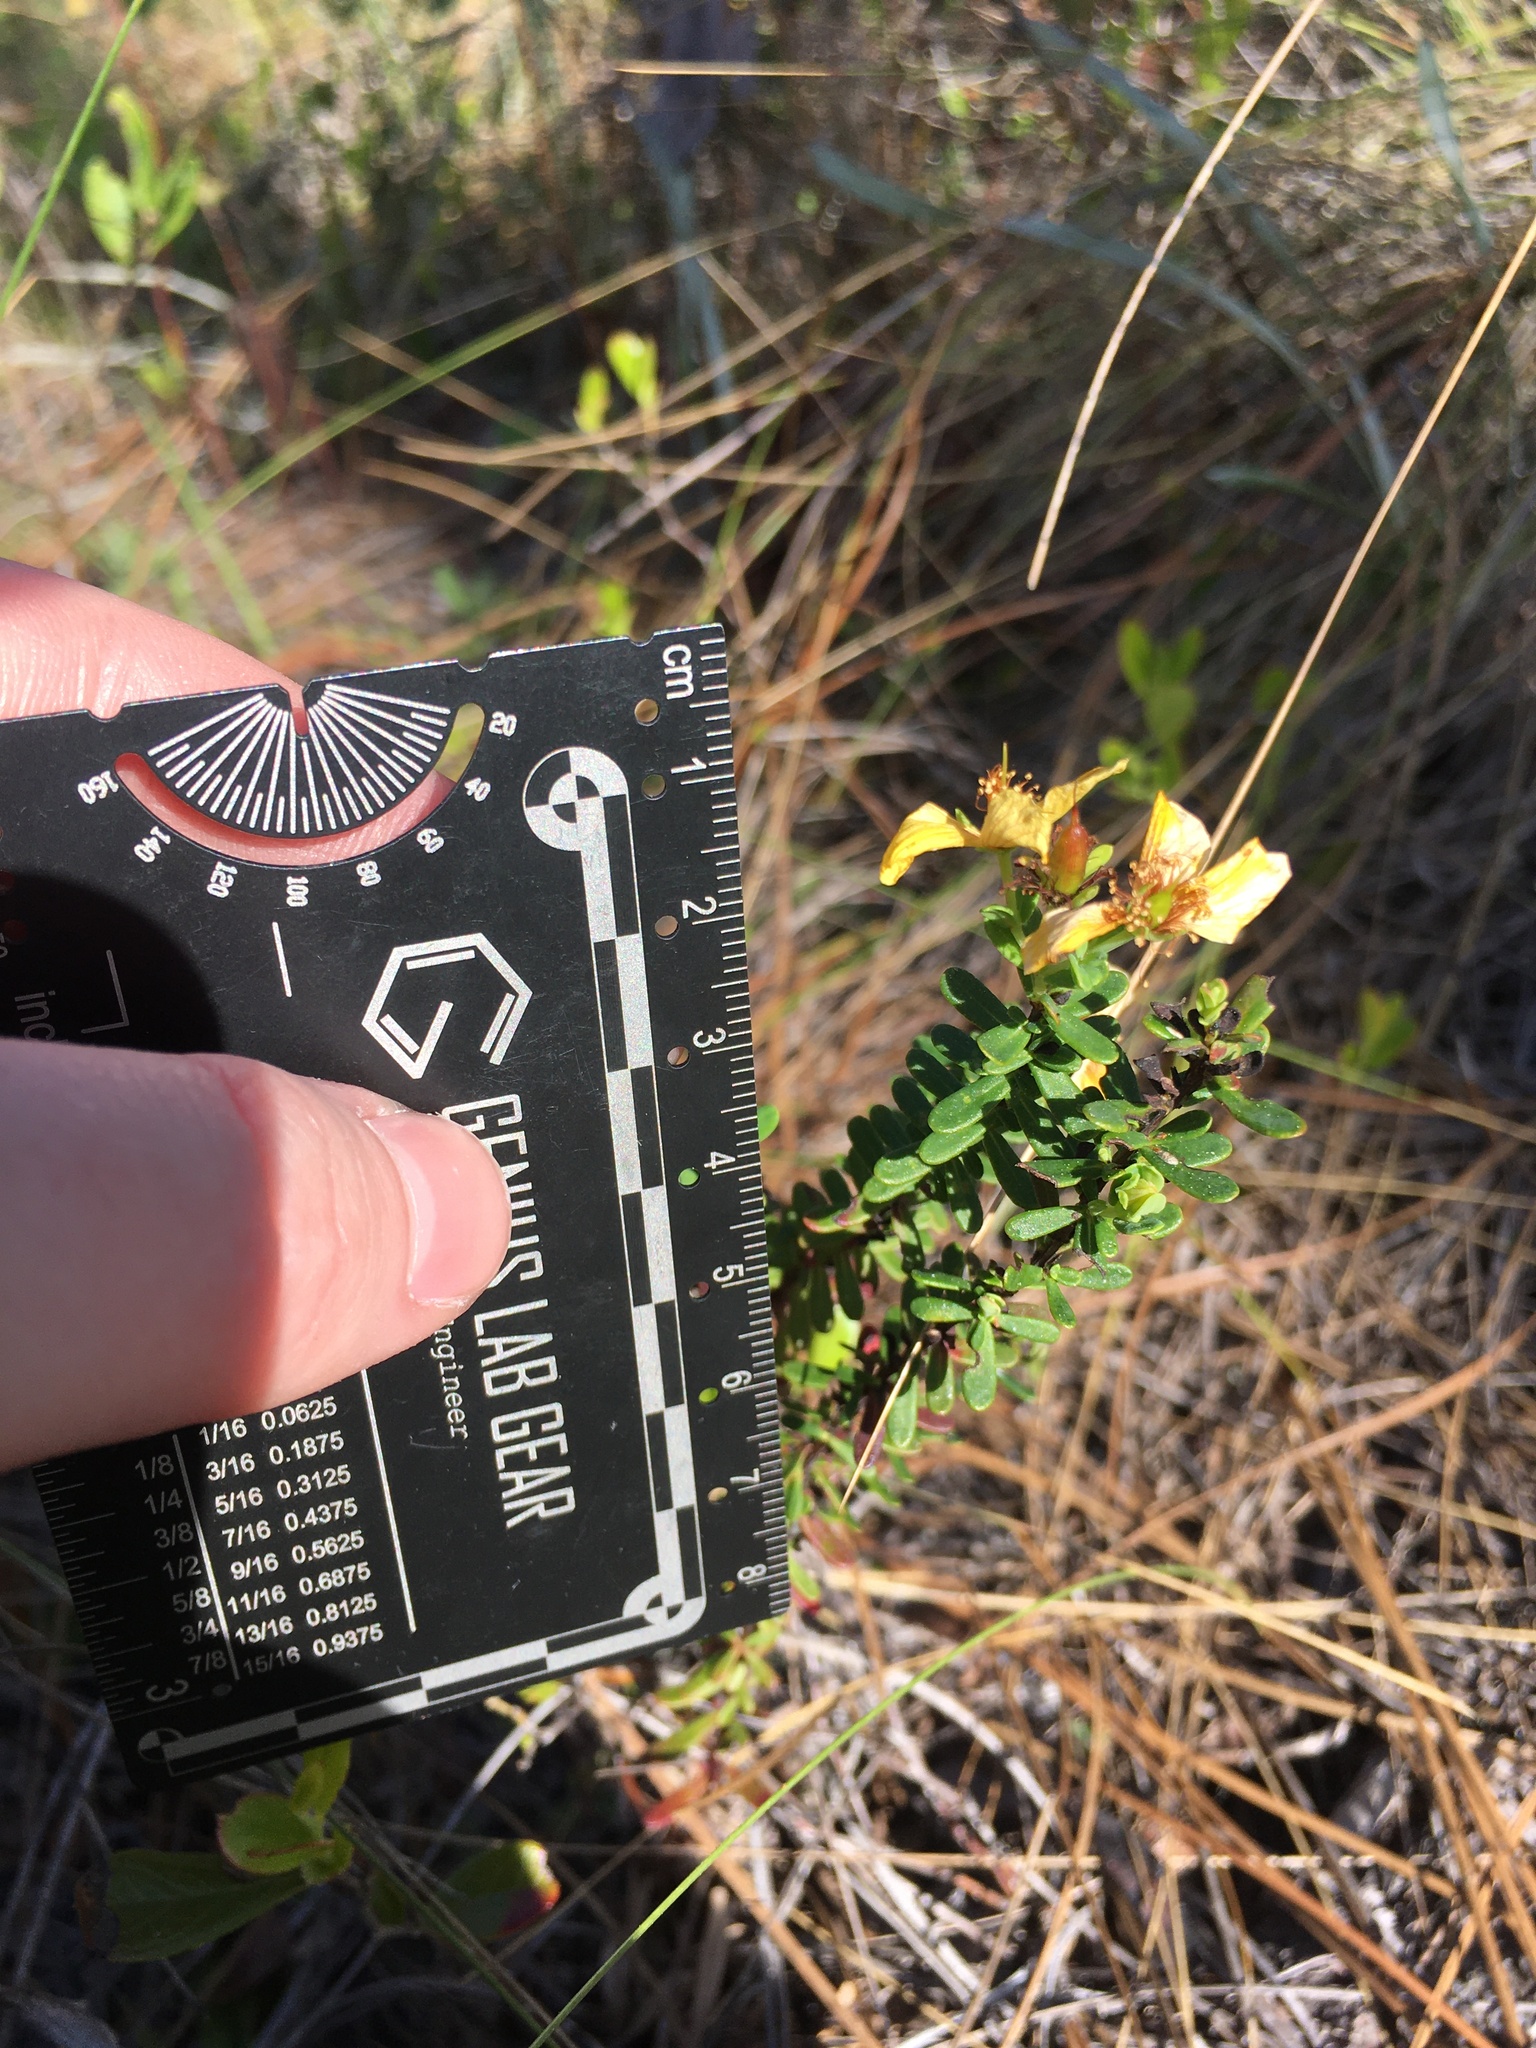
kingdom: Plantae
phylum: Tracheophyta
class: Magnoliopsida
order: Malpighiales
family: Hypericaceae
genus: Hypericum
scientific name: Hypericum microsepalum
